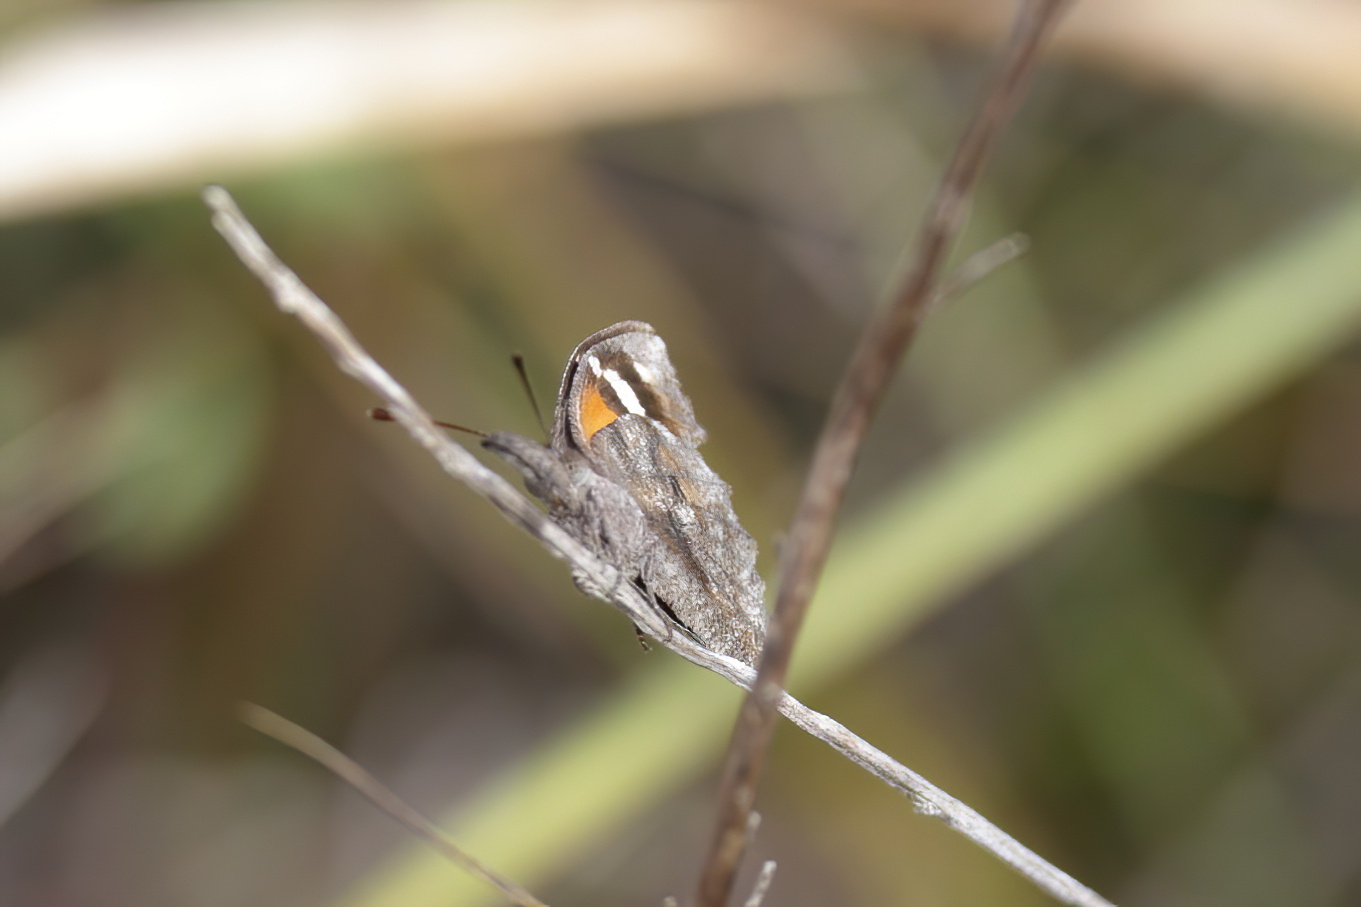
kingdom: Animalia
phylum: Arthropoda
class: Insecta
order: Lepidoptera
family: Nymphalidae
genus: Libytheana
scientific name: Libytheana carinenta
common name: American snout
